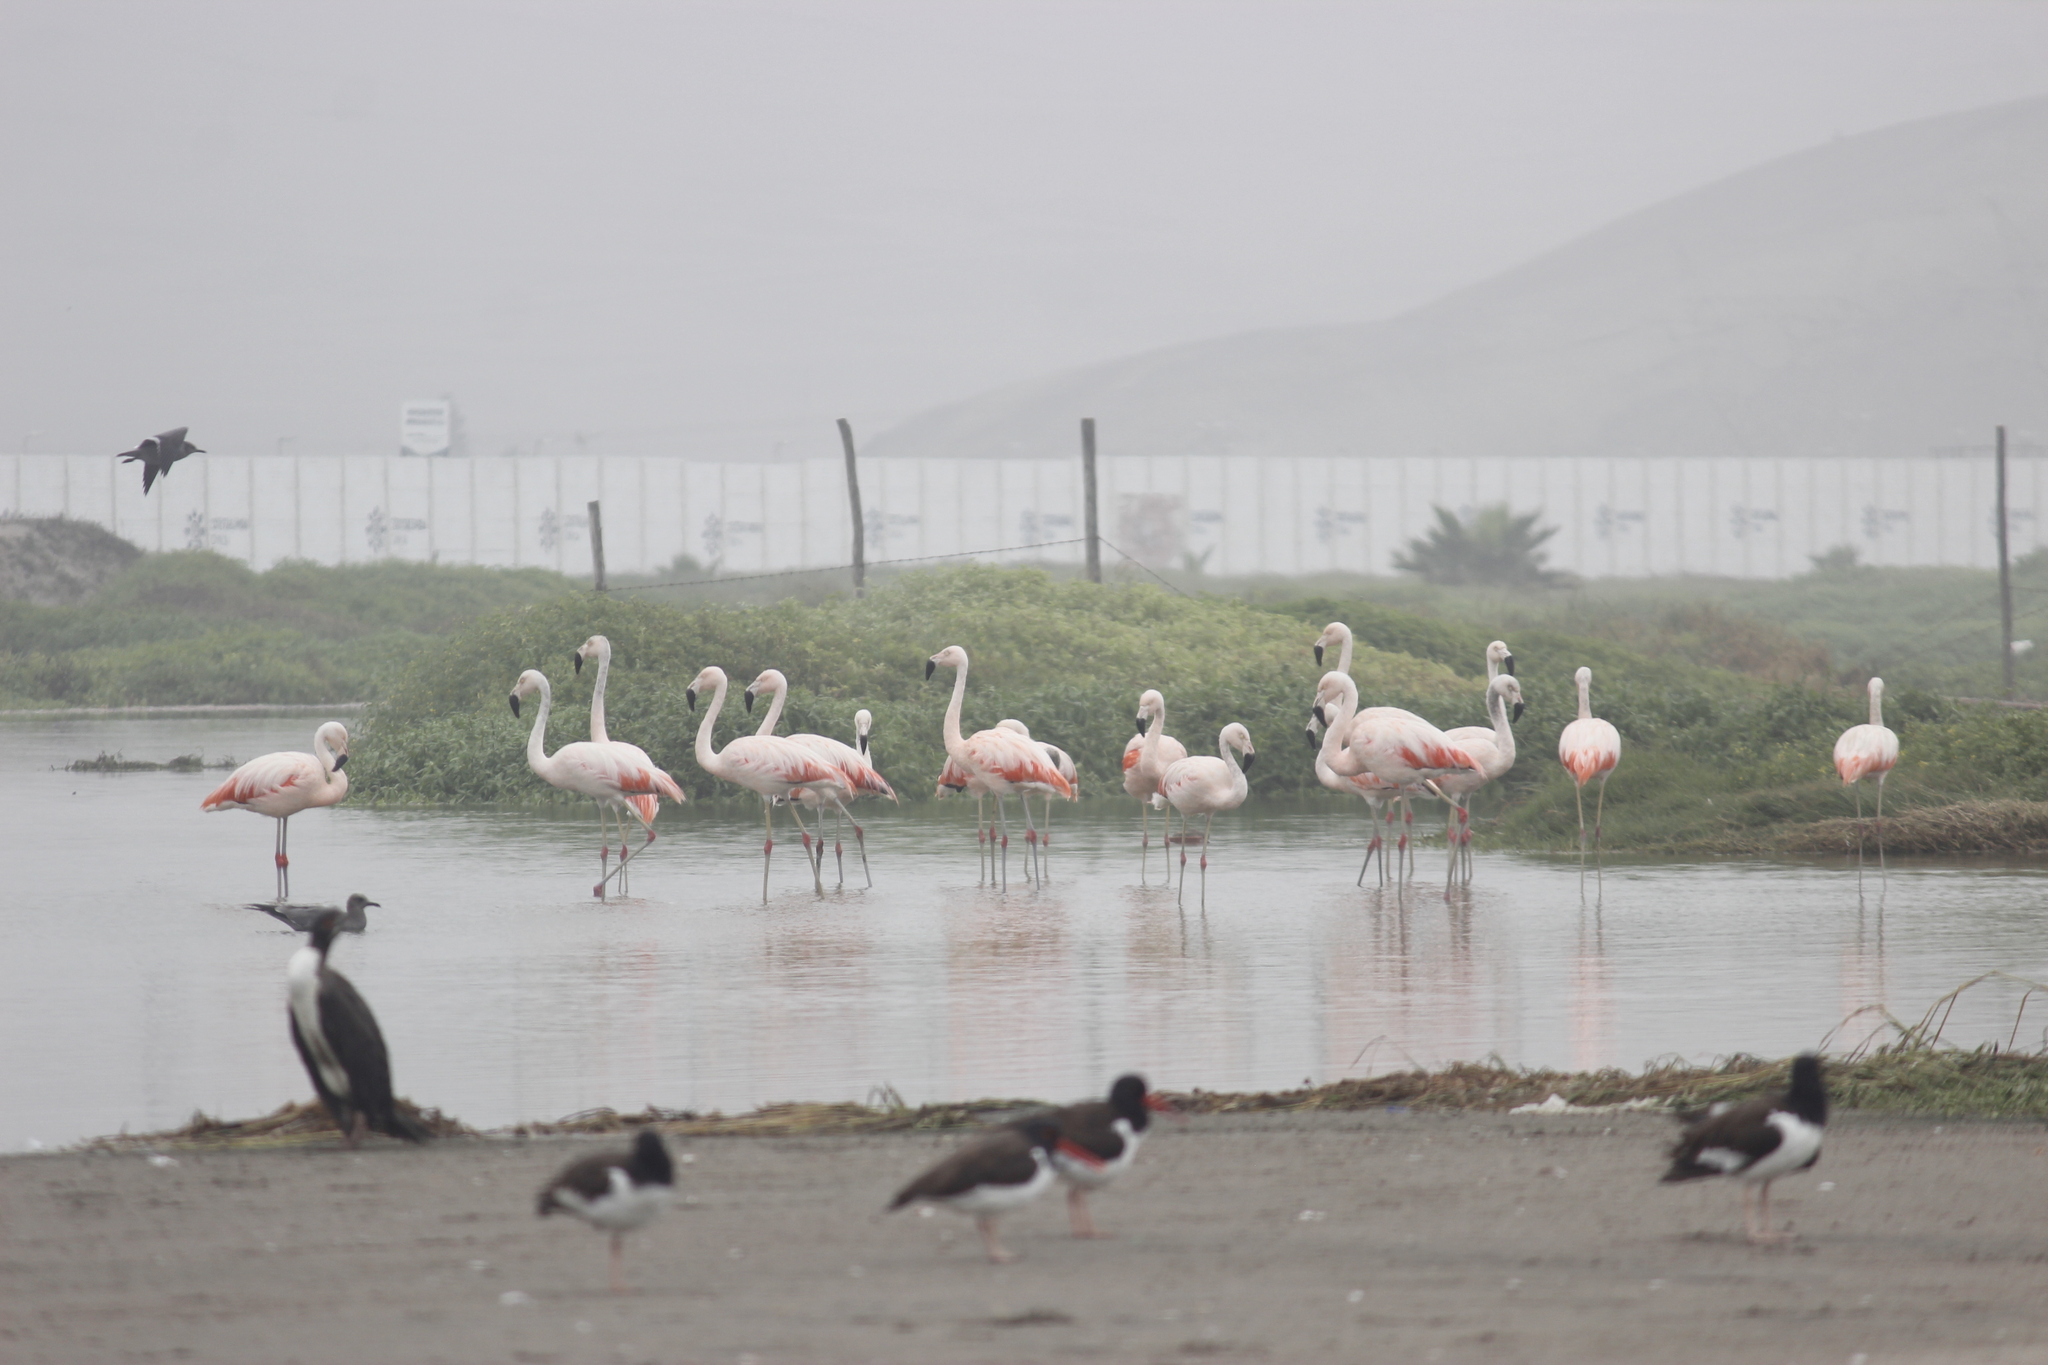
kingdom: Animalia
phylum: Chordata
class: Aves
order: Phoenicopteriformes
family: Phoenicopteridae
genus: Phoenicopterus
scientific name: Phoenicopterus chilensis
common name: Chilean flamingo
